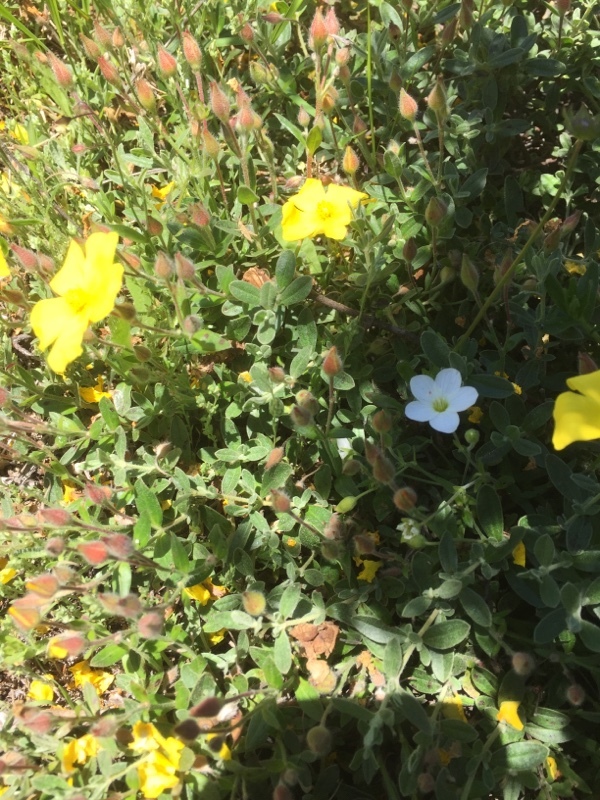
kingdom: Plantae
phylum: Tracheophyta
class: Magnoliopsida
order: Malvales
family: Cistaceae
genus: Halimium
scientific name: Halimium lasianthum
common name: Lisbon false sun-rose
